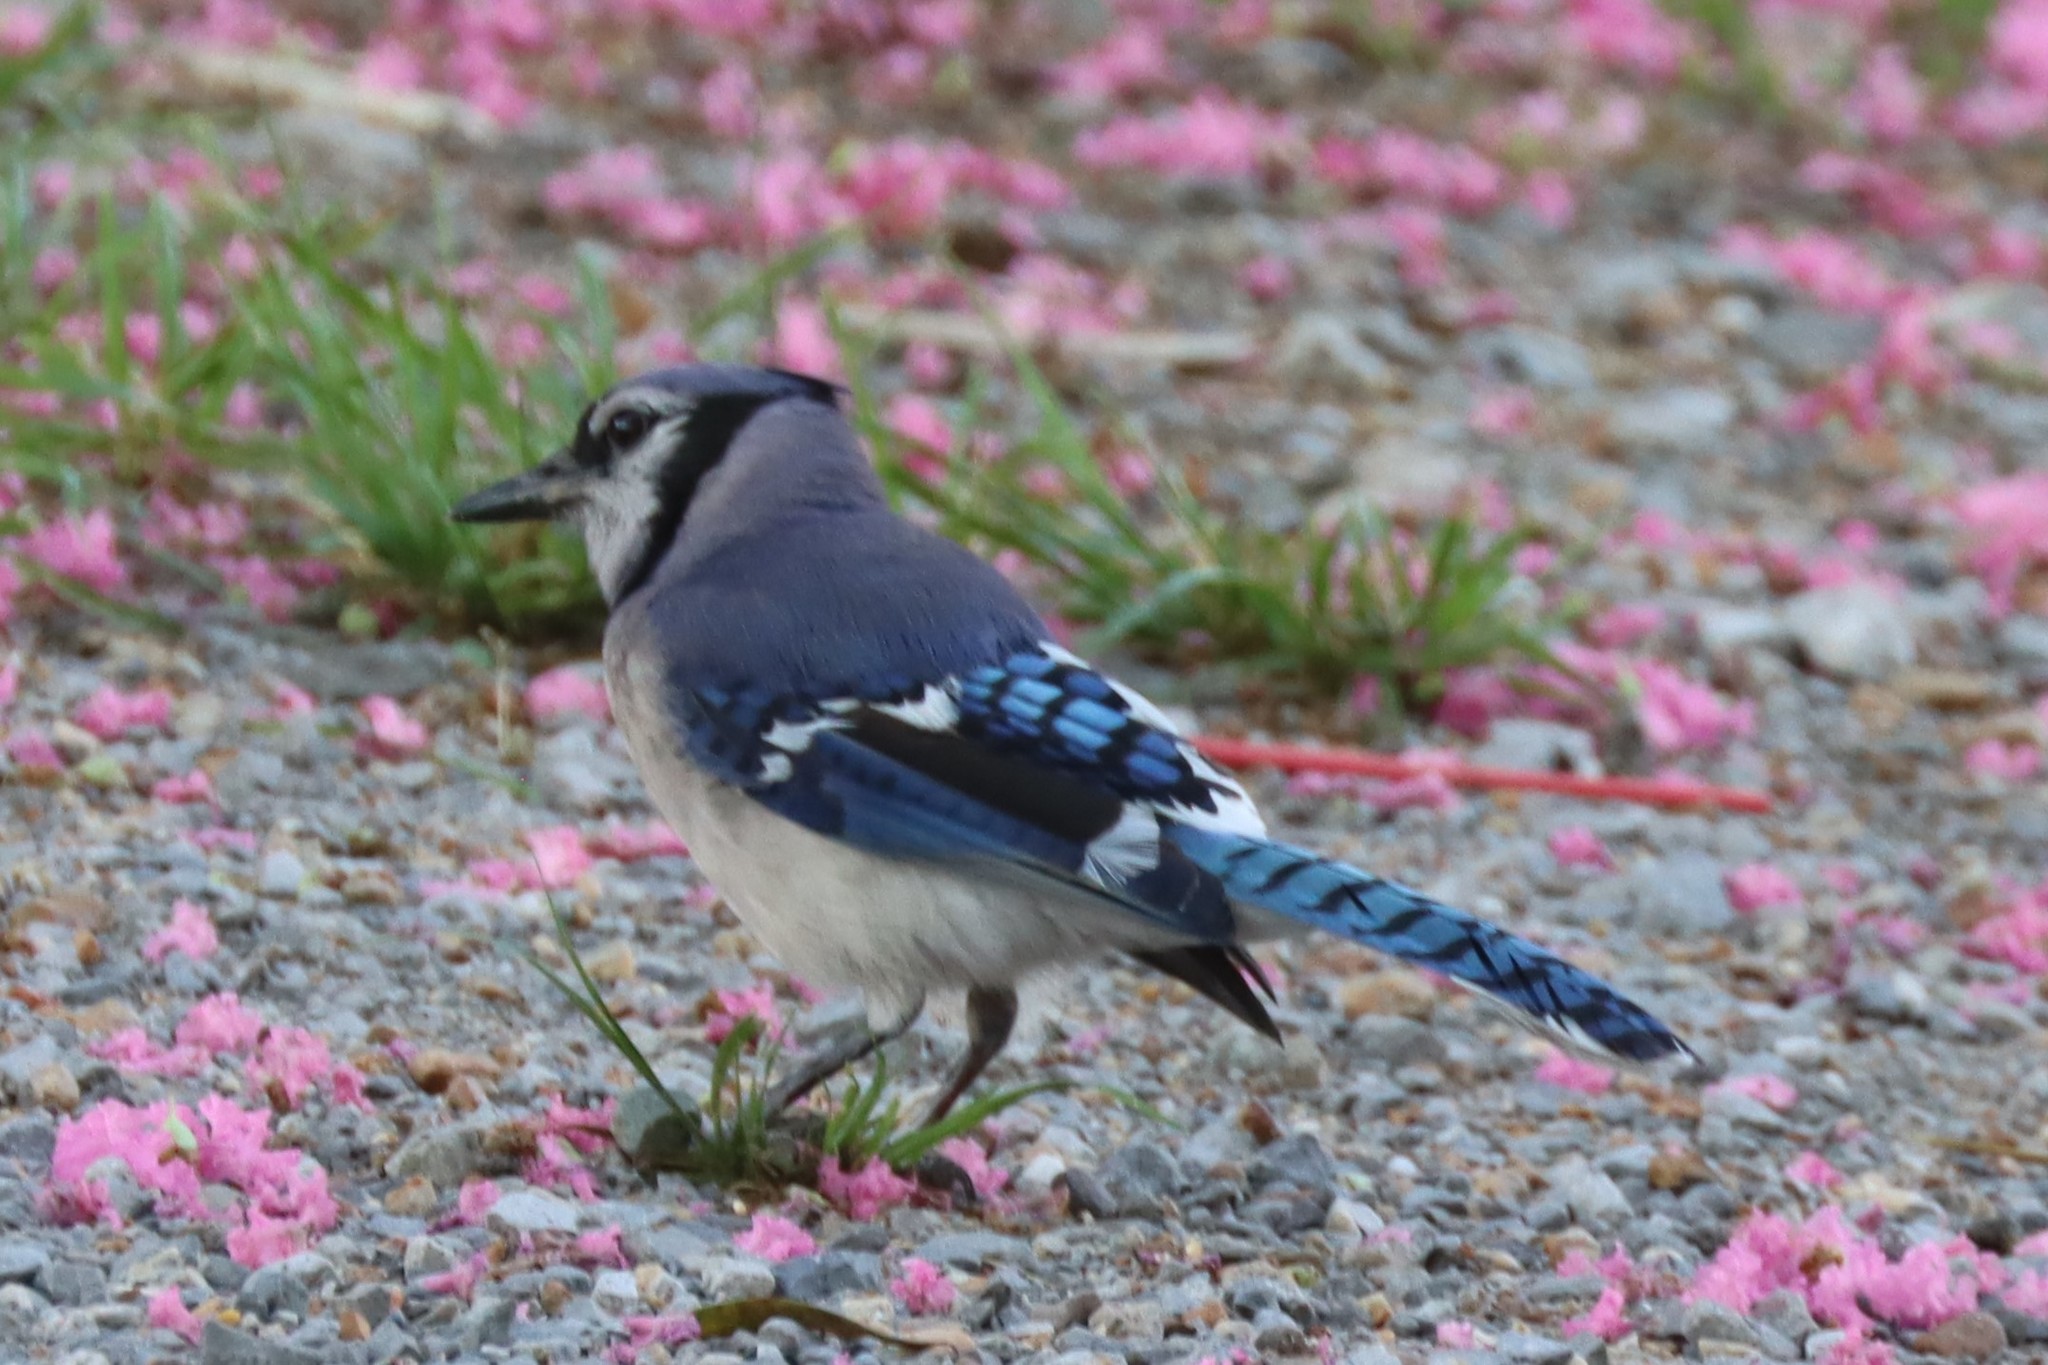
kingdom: Animalia
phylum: Chordata
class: Aves
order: Passeriformes
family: Corvidae
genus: Cyanocitta
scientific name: Cyanocitta cristata
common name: Blue jay
